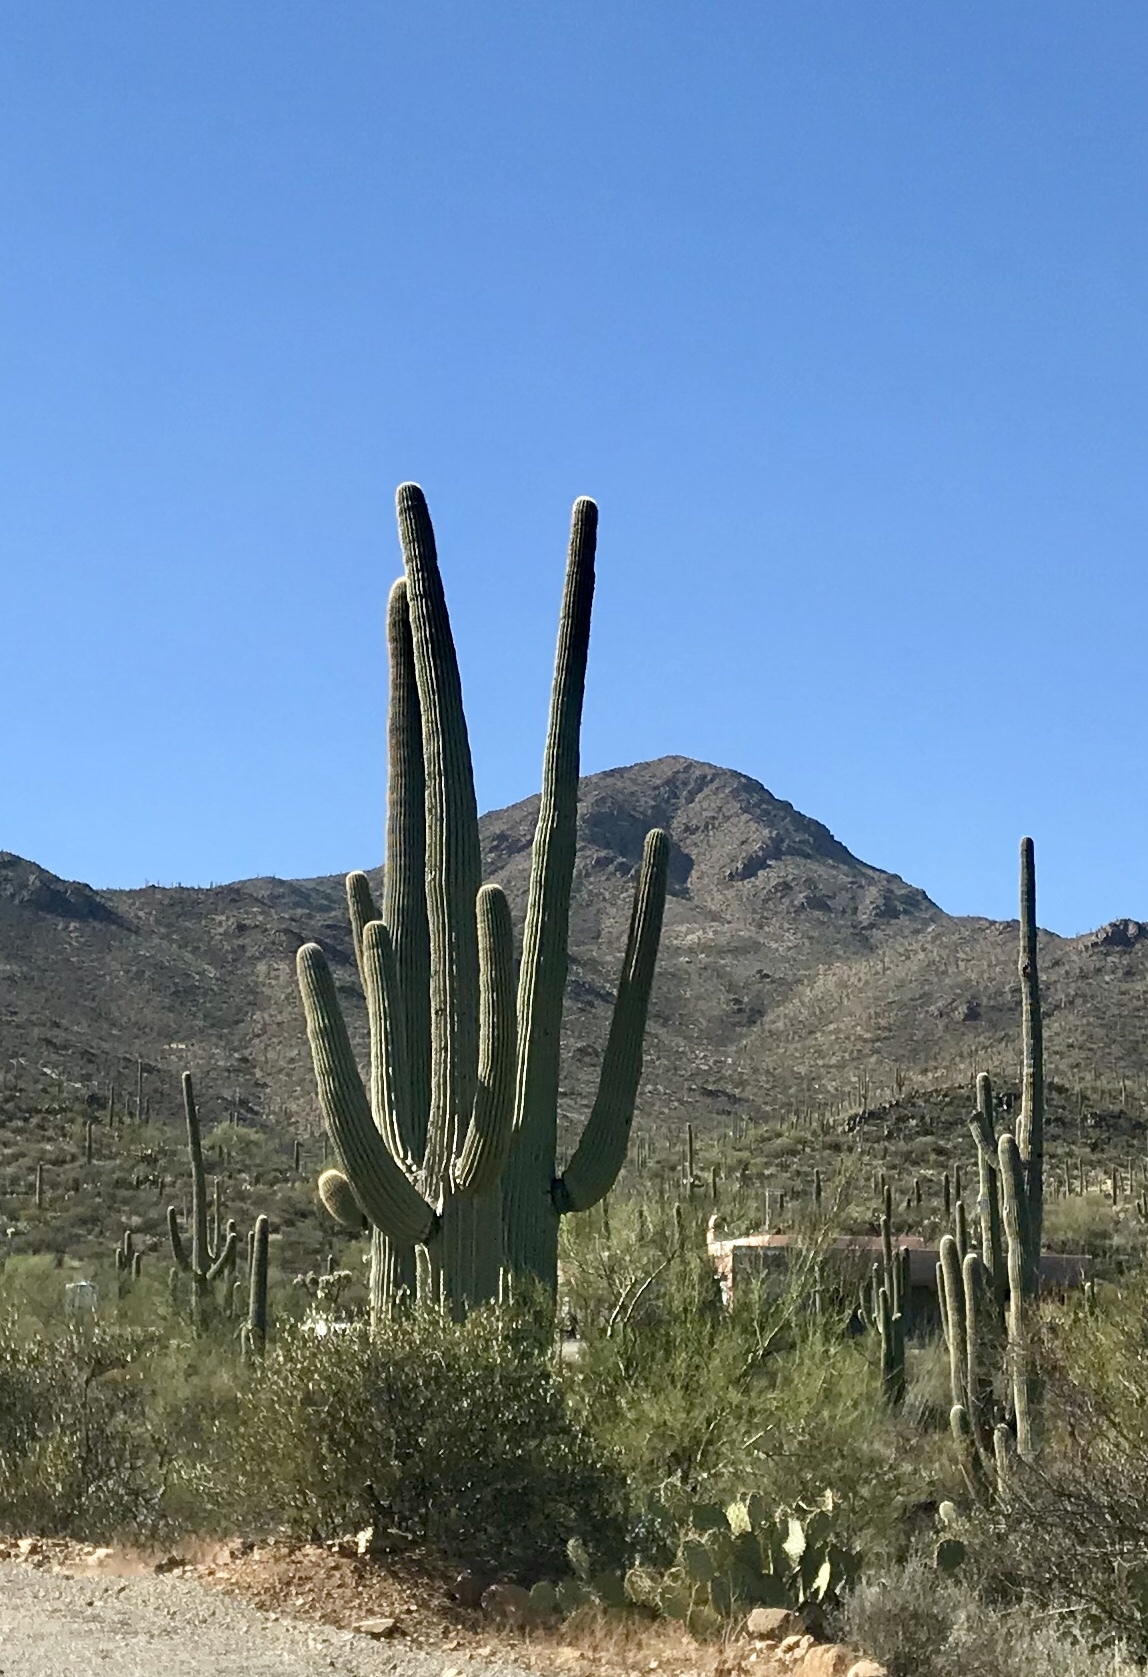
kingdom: Plantae
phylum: Tracheophyta
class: Magnoliopsida
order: Caryophyllales
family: Cactaceae
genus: Carnegiea
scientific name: Carnegiea gigantea
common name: Saguaro
